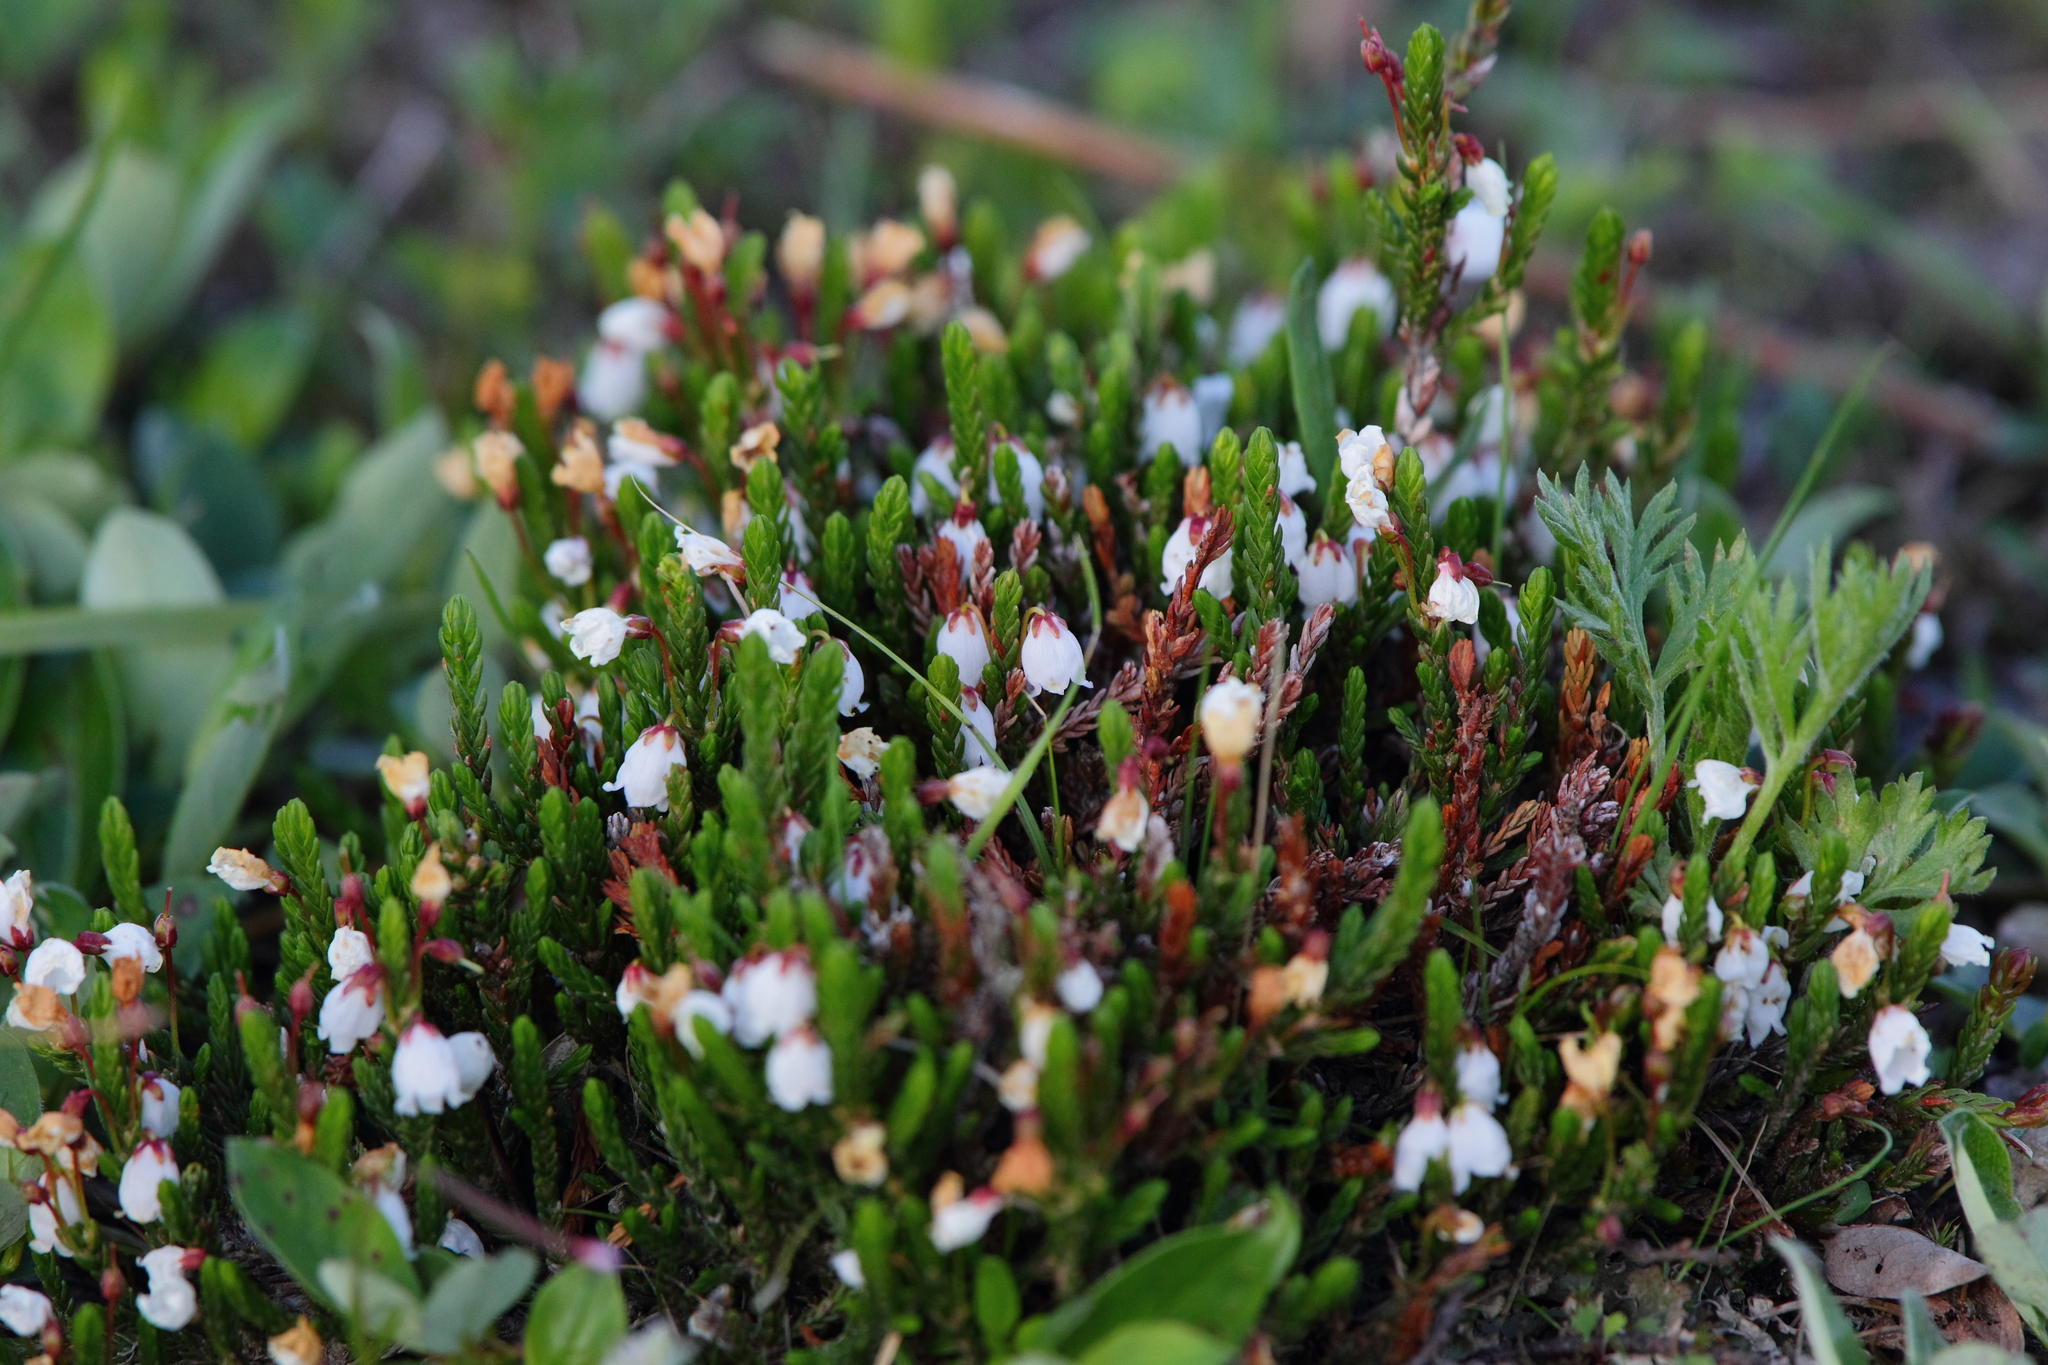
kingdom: Plantae
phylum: Tracheophyta
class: Magnoliopsida
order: Ericales
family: Ericaceae
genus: Cassiope
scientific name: Cassiope mertensiana
